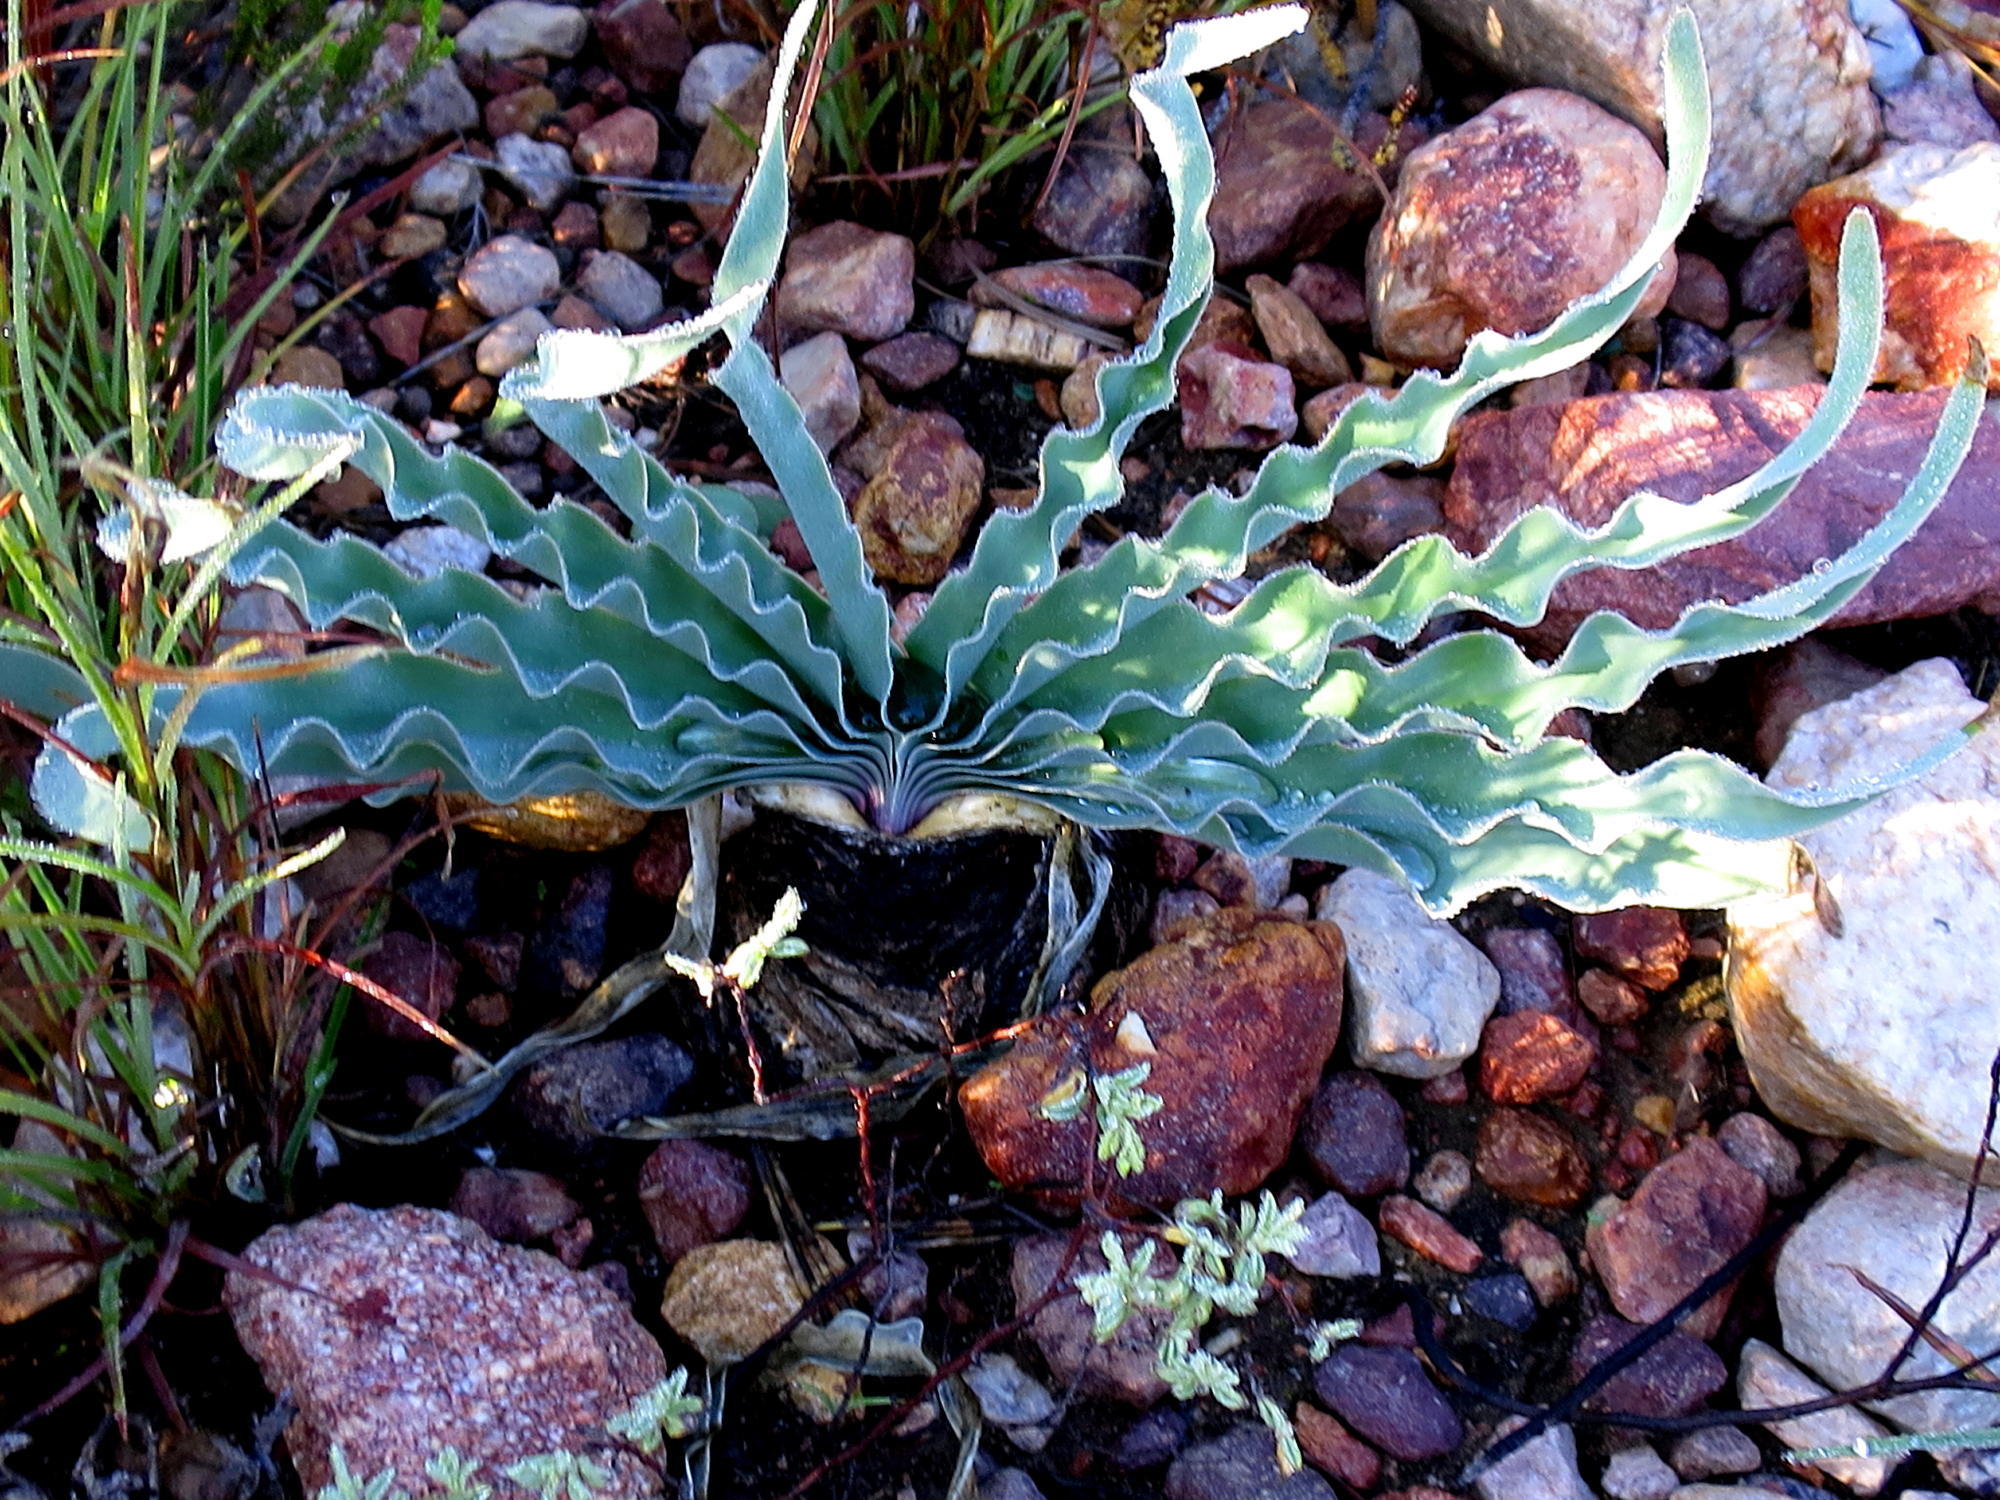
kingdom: Plantae
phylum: Tracheophyta
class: Liliopsida
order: Asparagales
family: Amaryllidaceae
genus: Boophone
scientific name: Boophone disticha
